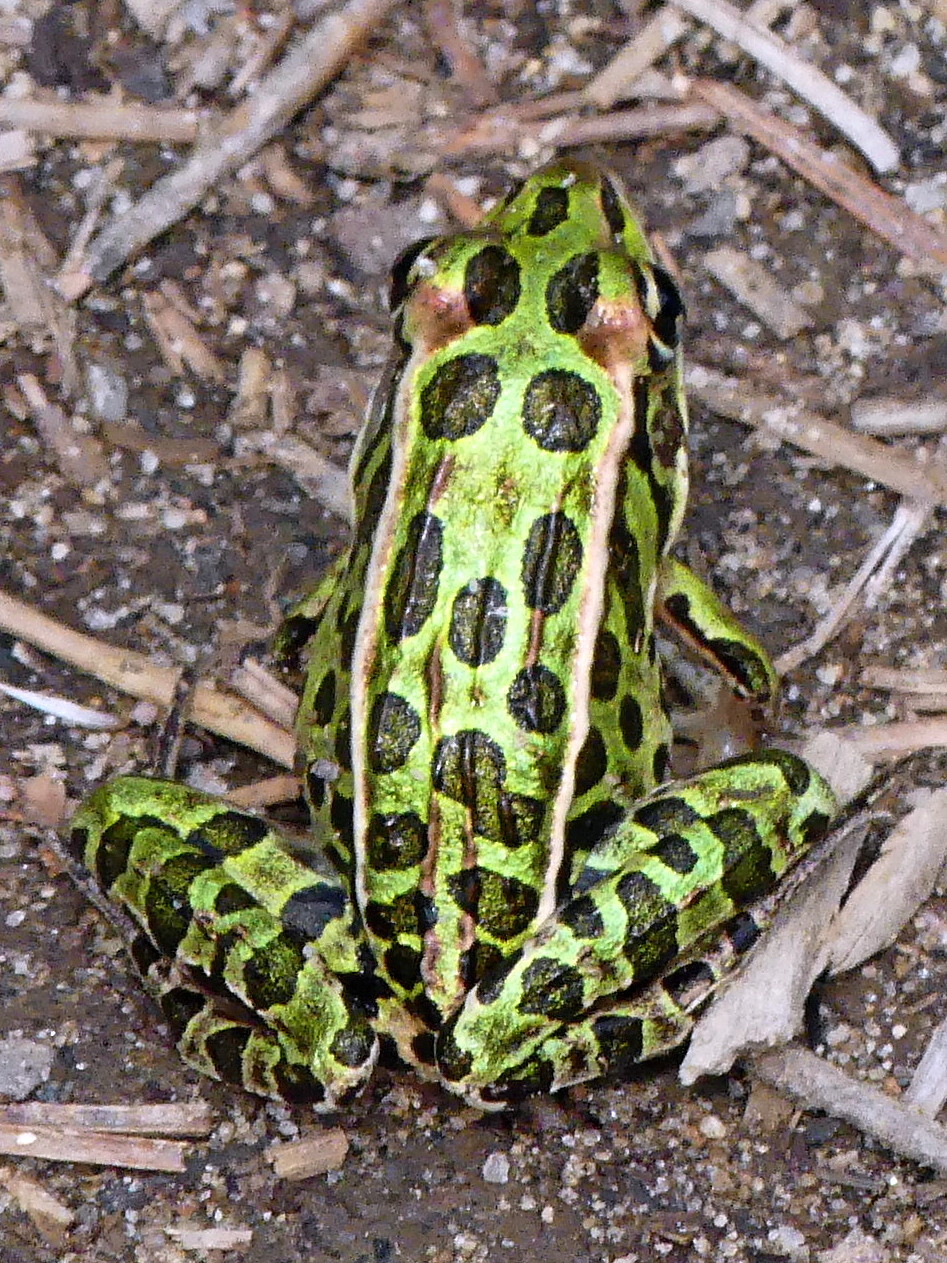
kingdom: Animalia
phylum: Chordata
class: Amphibia
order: Anura
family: Ranidae
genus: Lithobates
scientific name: Lithobates pipiens
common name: Northern leopard frog
